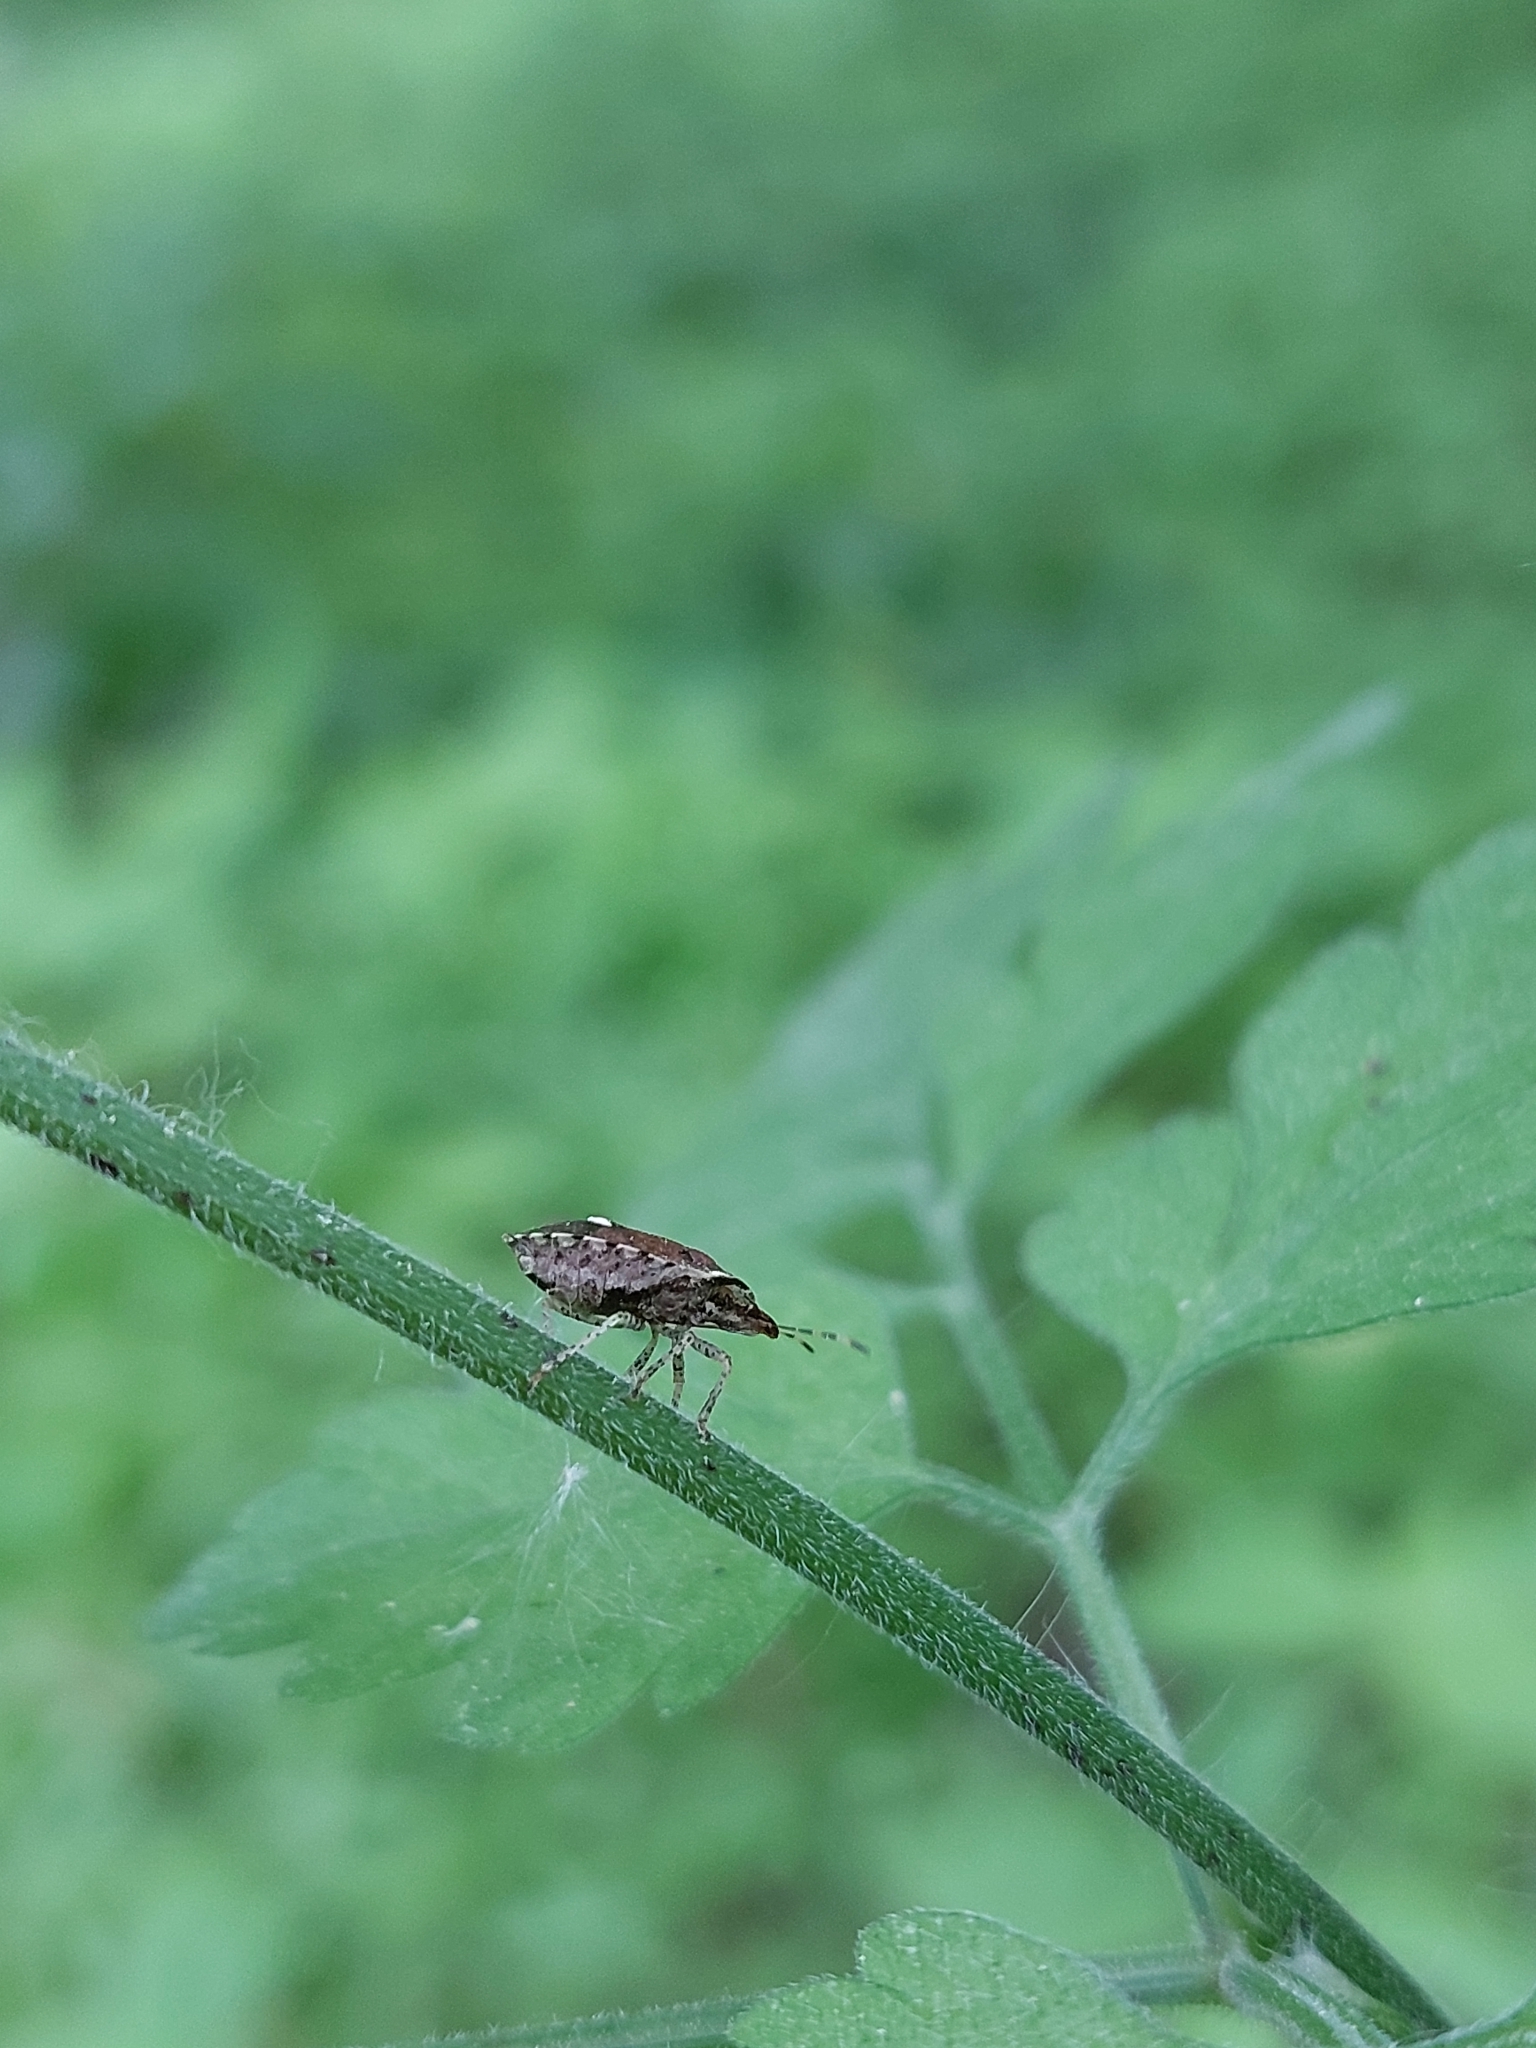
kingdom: Animalia
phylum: Arthropoda
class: Insecta
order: Hemiptera
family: Pentatomidae
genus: Dyroderes
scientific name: Dyroderes umbraculatus
